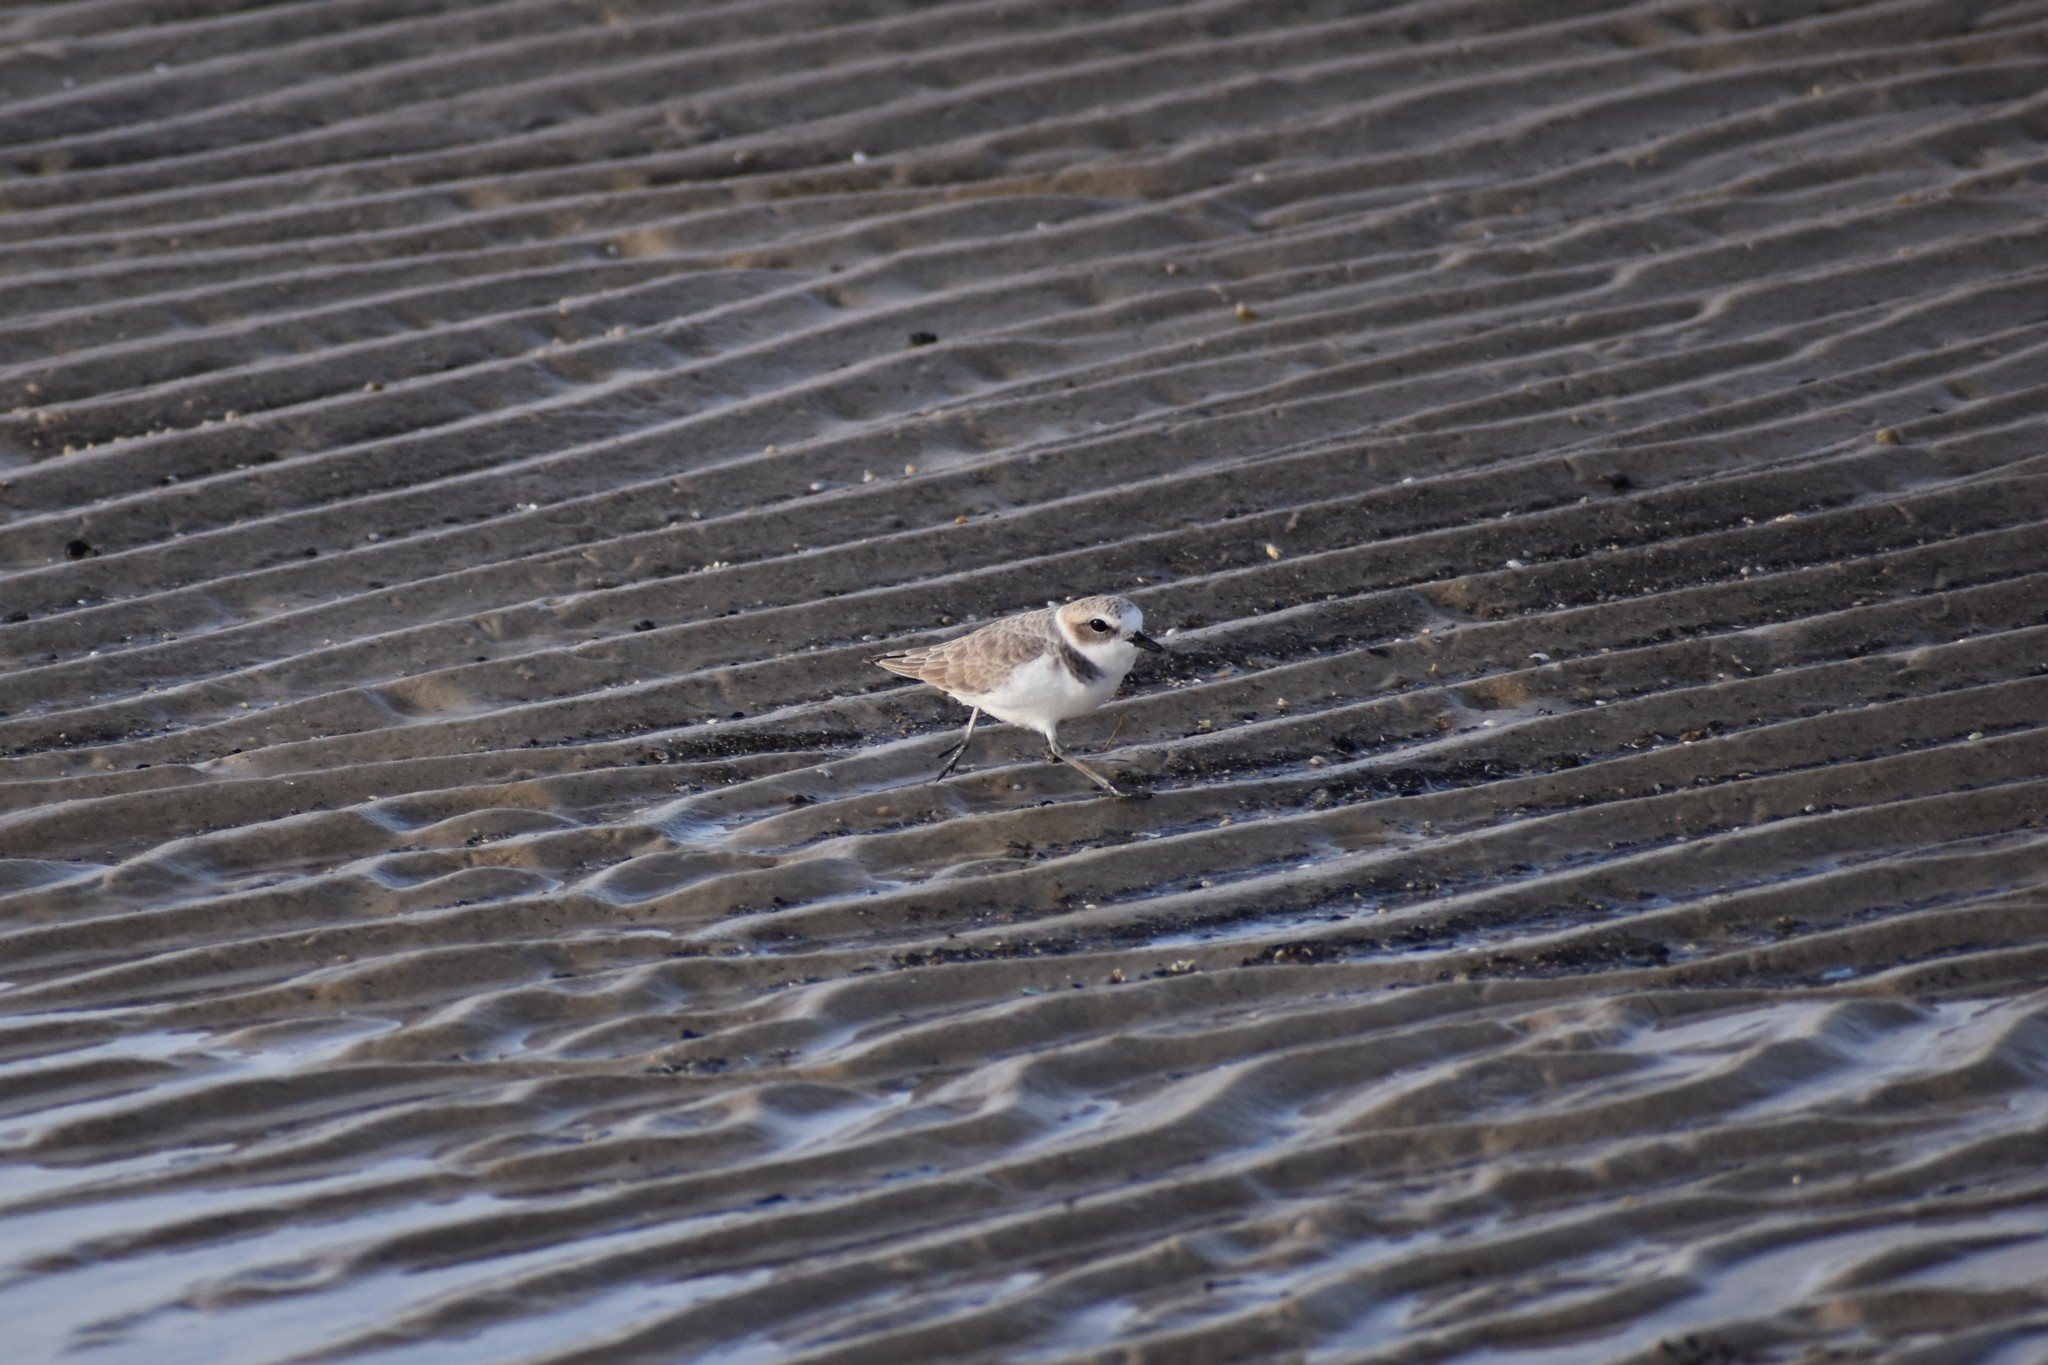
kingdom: Animalia
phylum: Chordata
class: Aves
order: Charadriiformes
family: Charadriidae
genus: Anarhynchus
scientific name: Anarhynchus
